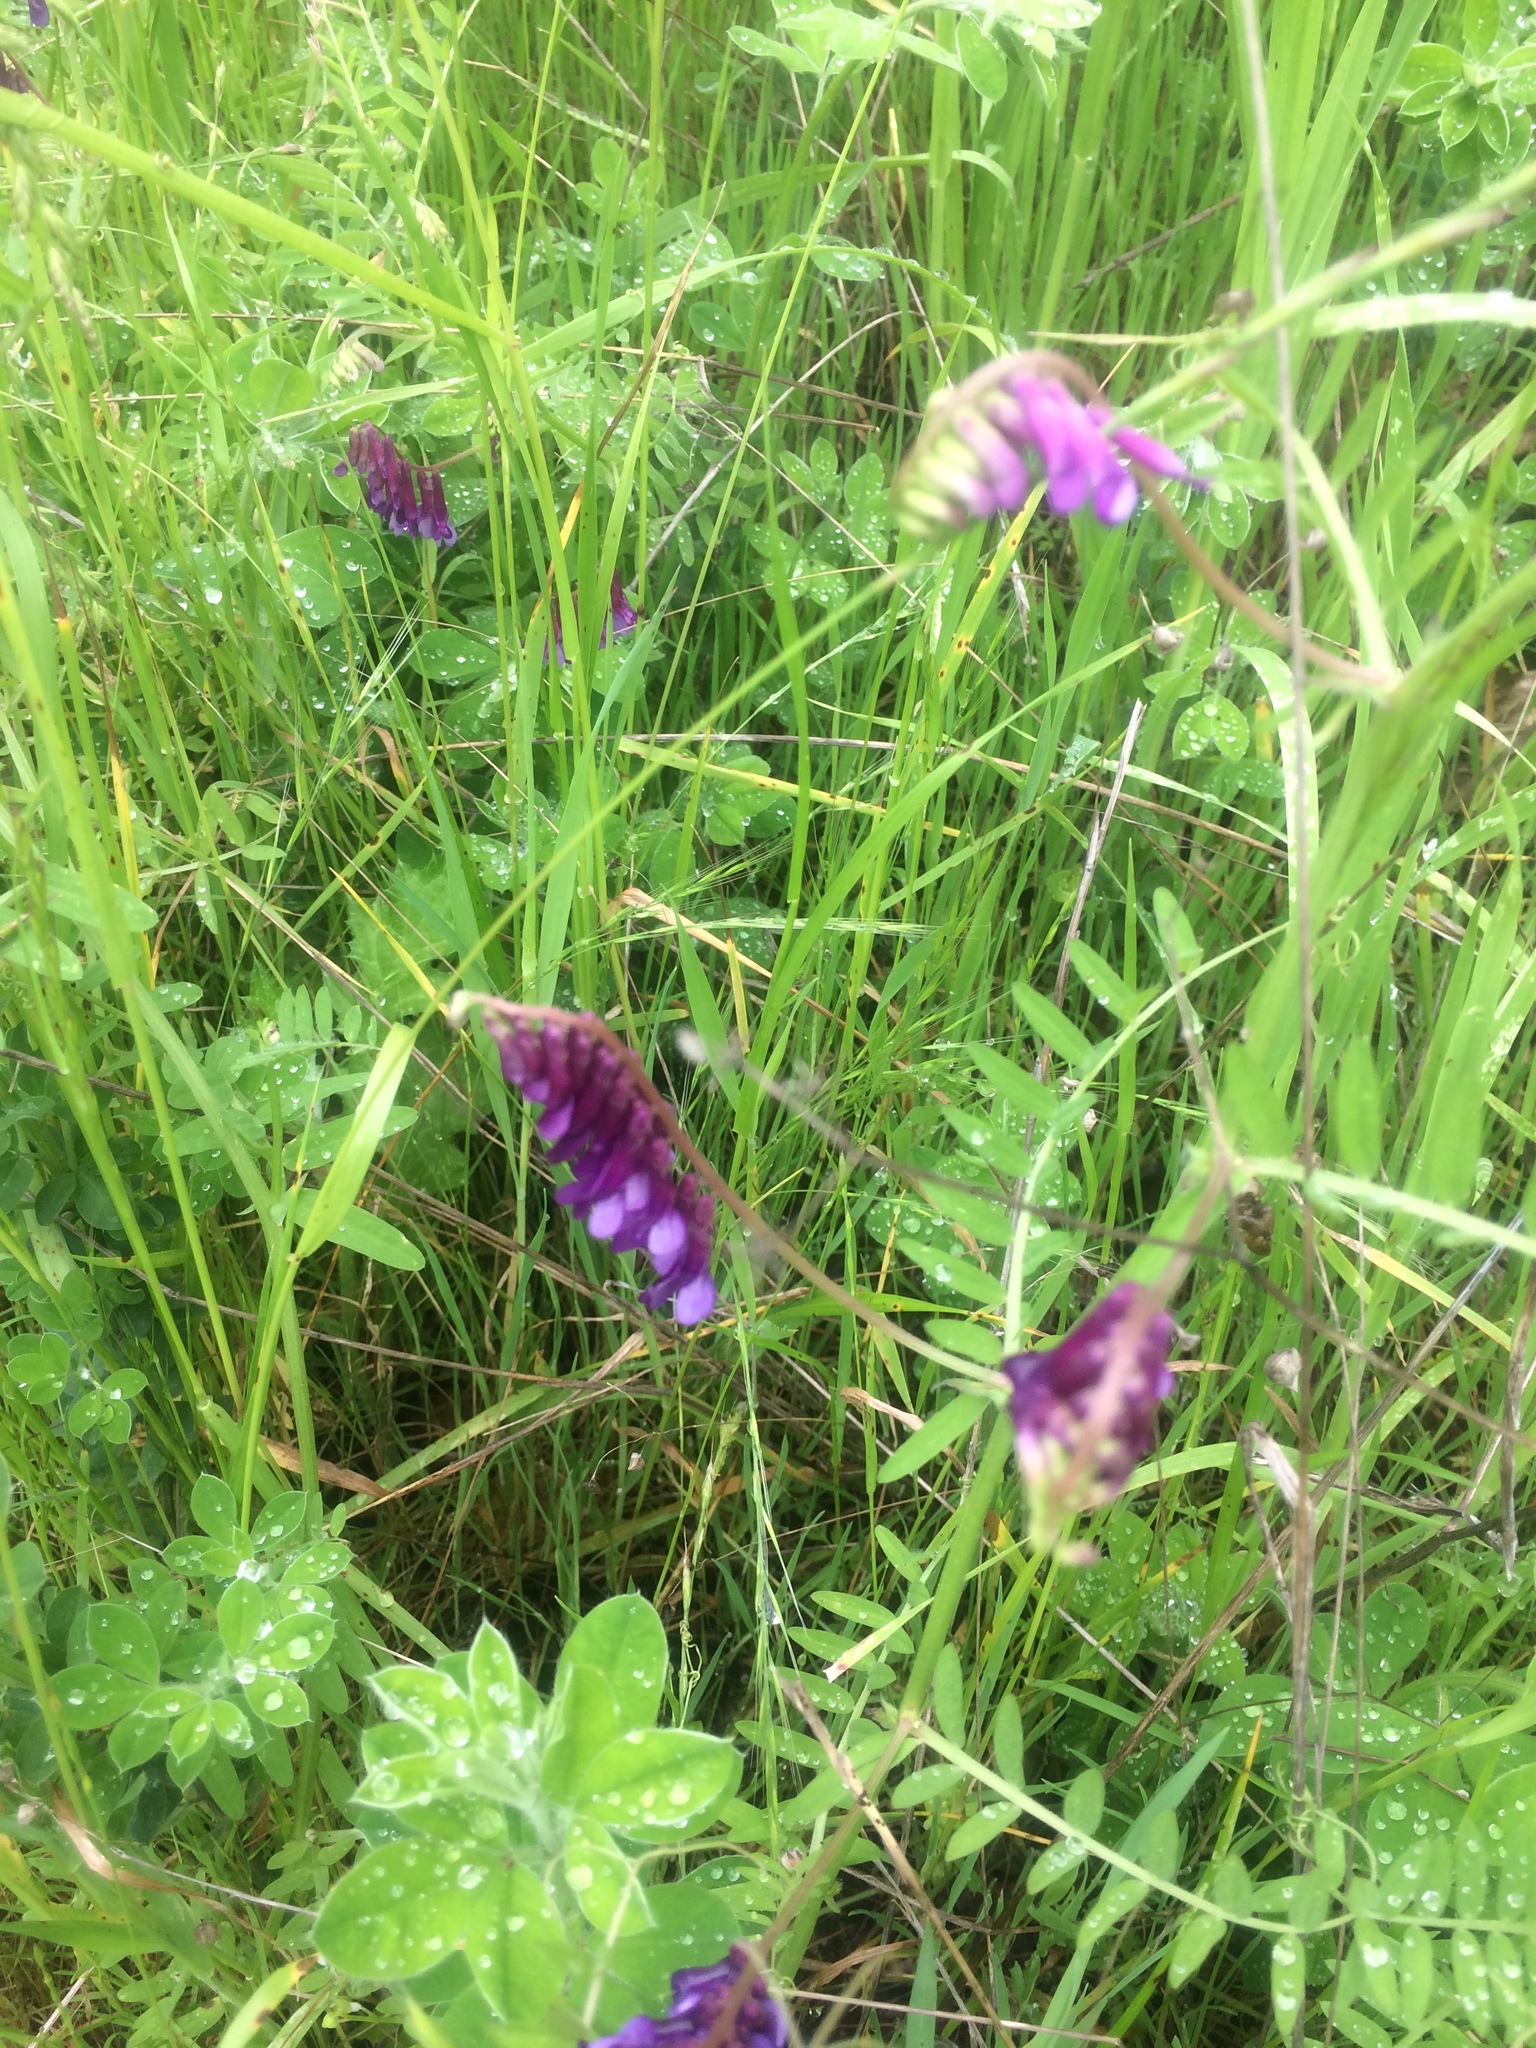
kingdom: Plantae
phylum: Tracheophyta
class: Magnoliopsida
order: Fabales
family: Fabaceae
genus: Vicia
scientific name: Vicia villosa
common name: Fodder vetch
